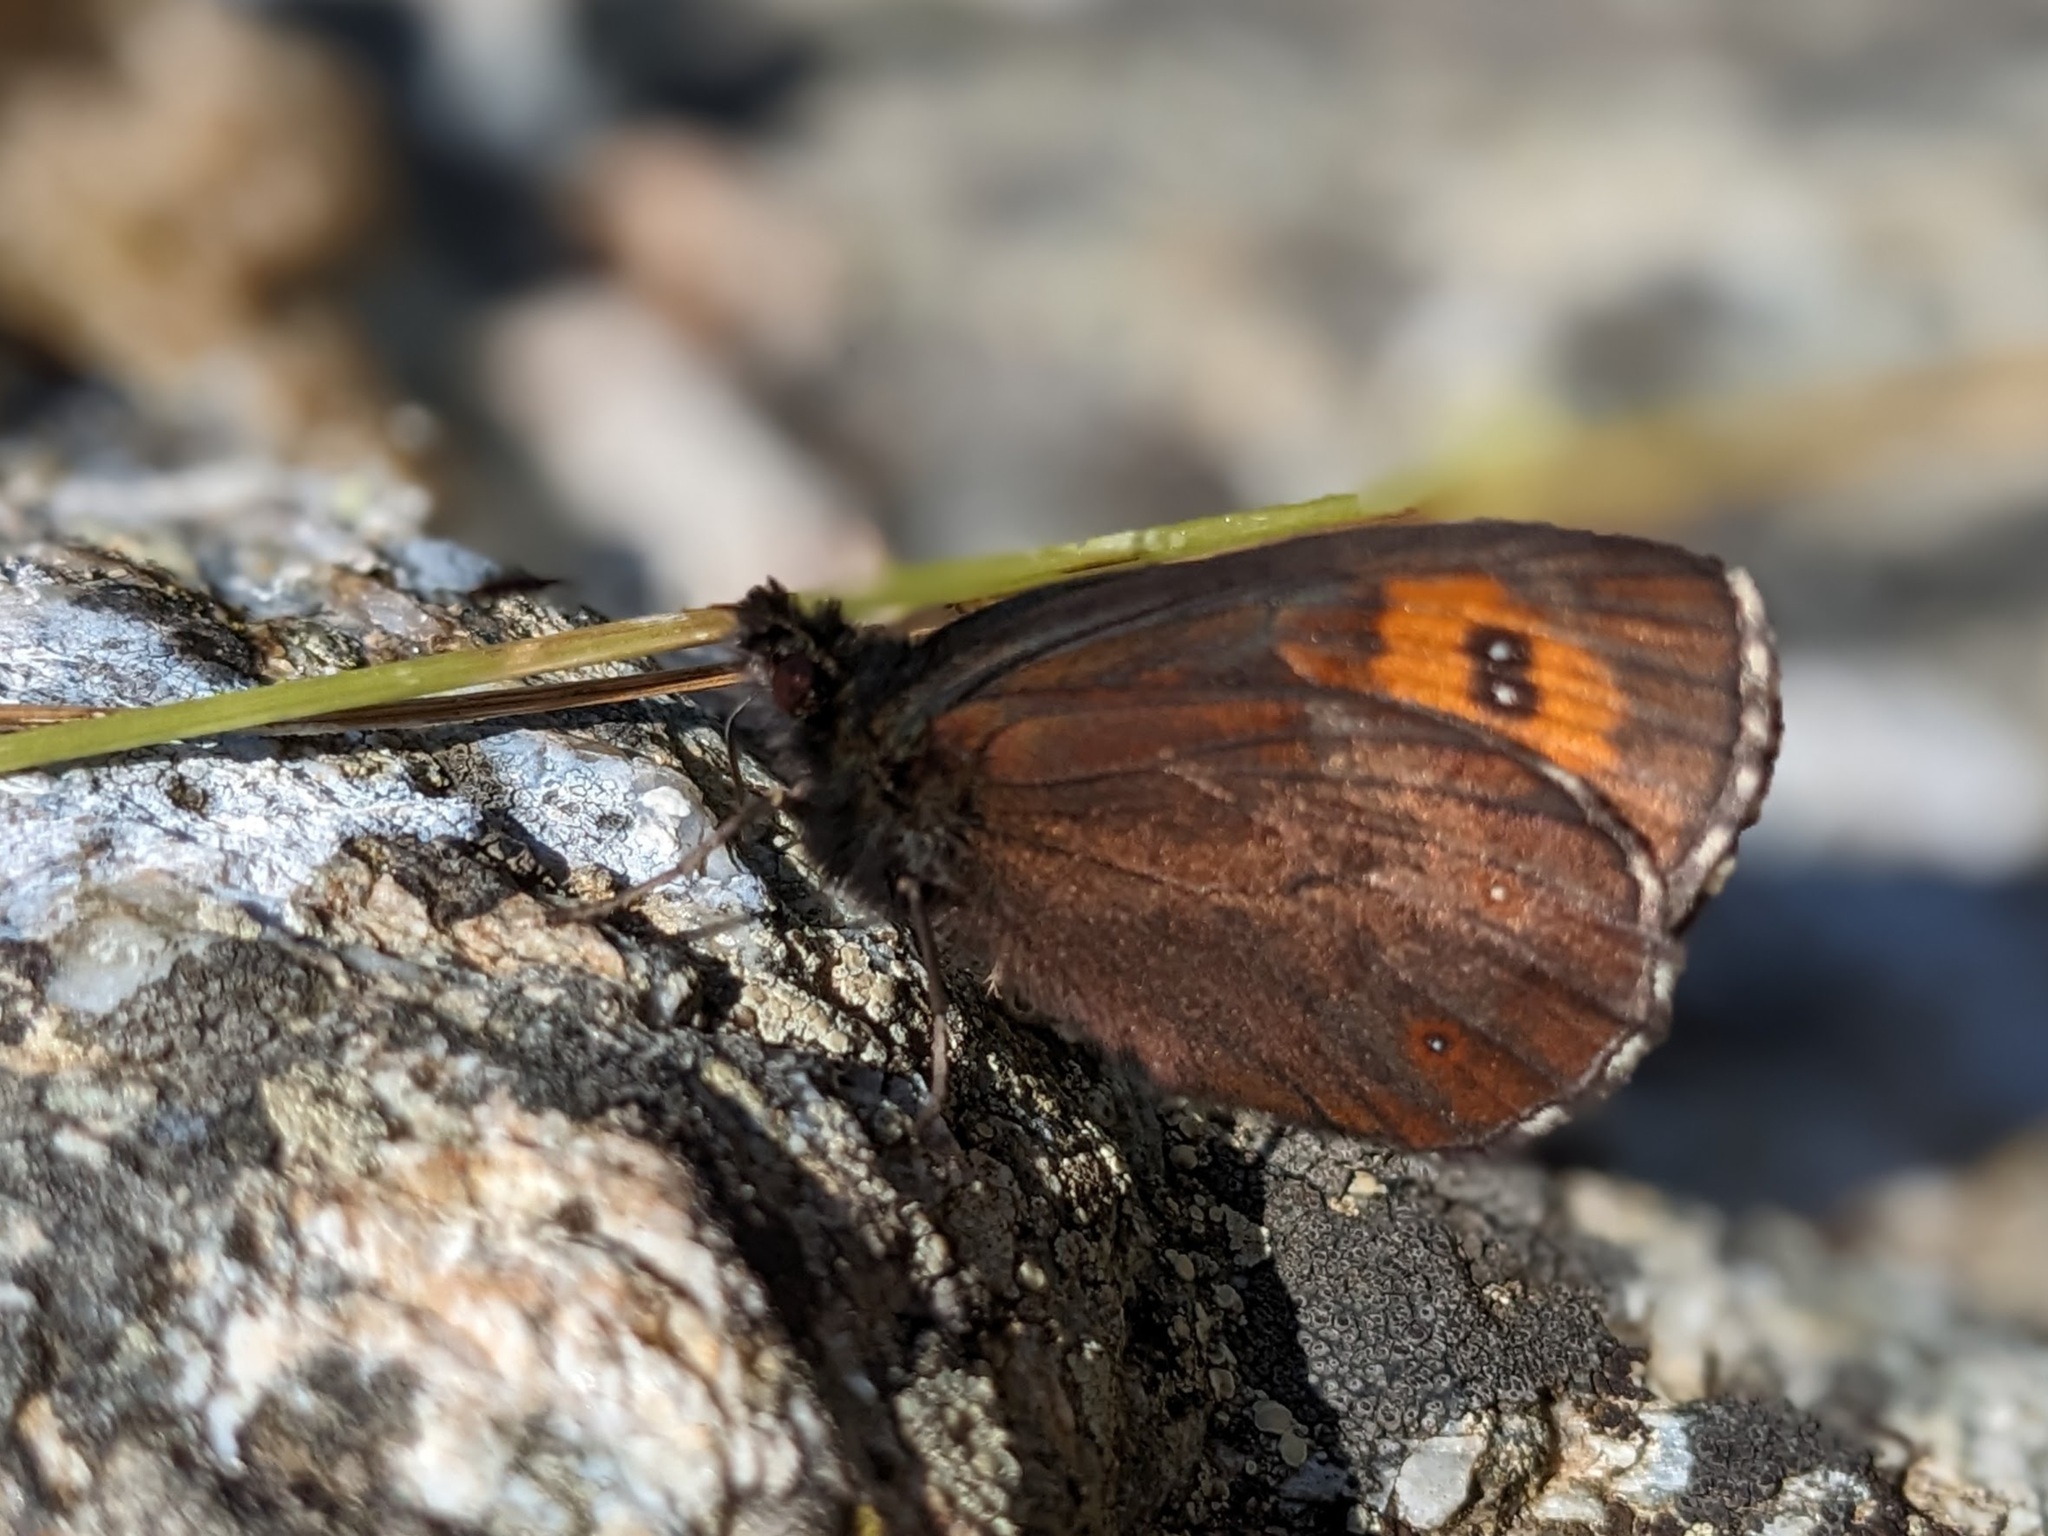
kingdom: Animalia
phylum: Arthropoda
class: Insecta
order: Lepidoptera
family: Nymphalidae
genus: Erebia
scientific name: Erebia aethiops
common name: Scotch argus
